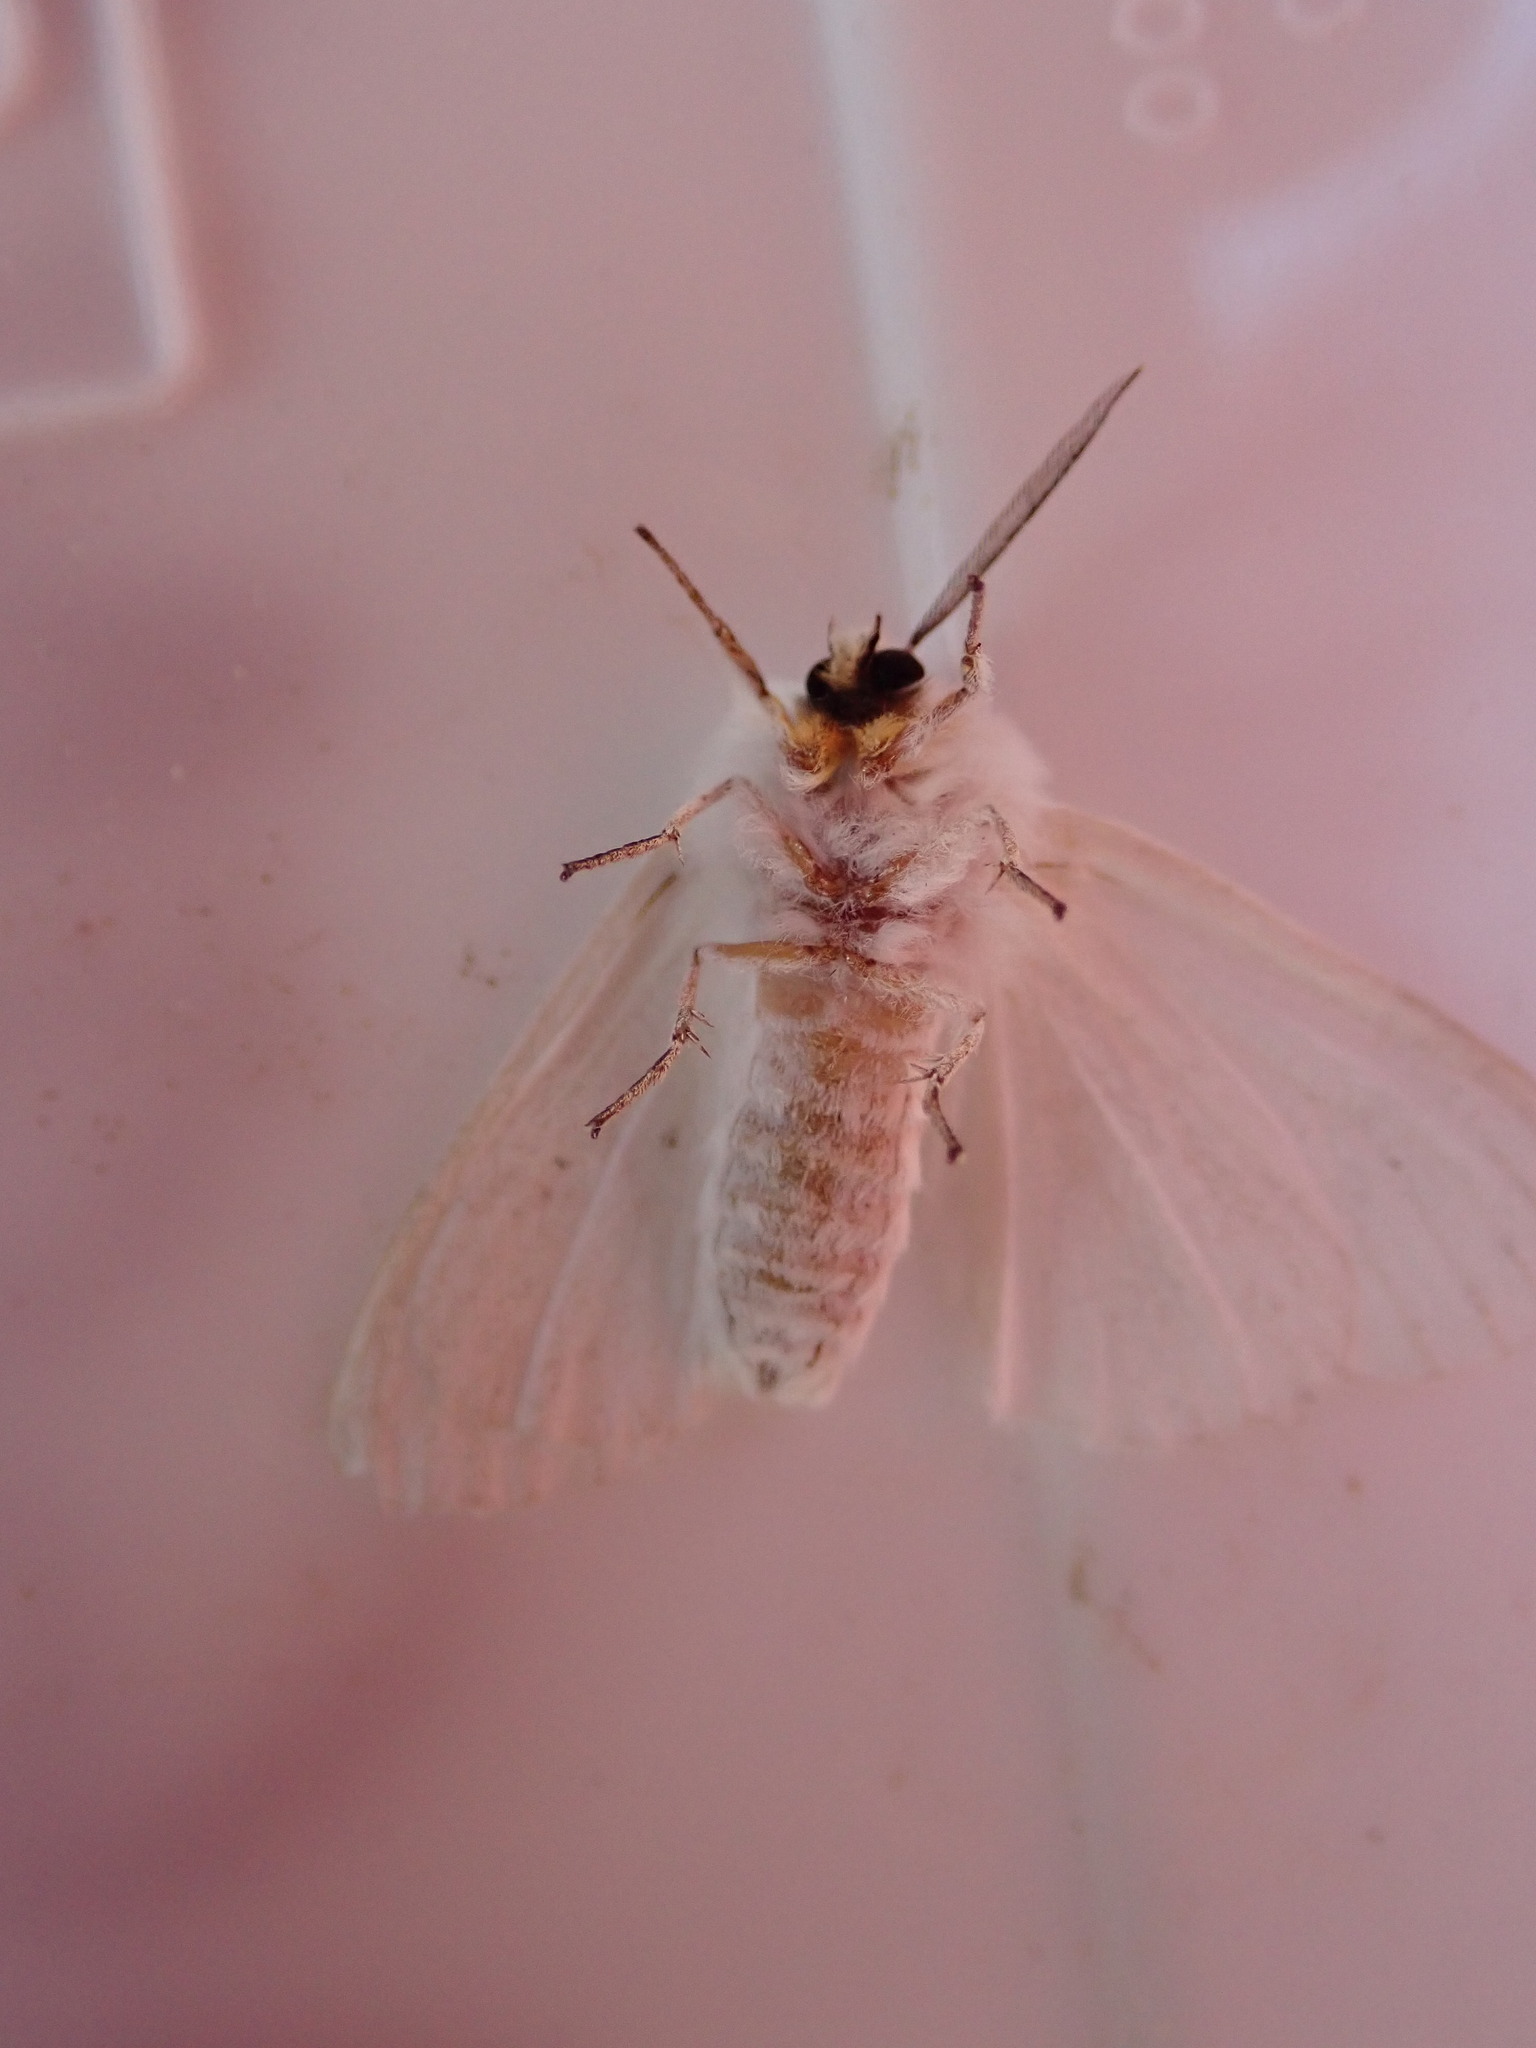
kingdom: Animalia
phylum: Arthropoda
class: Insecta
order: Lepidoptera
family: Erebidae
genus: Hyphantria
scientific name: Hyphantria cunea
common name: American white moth
